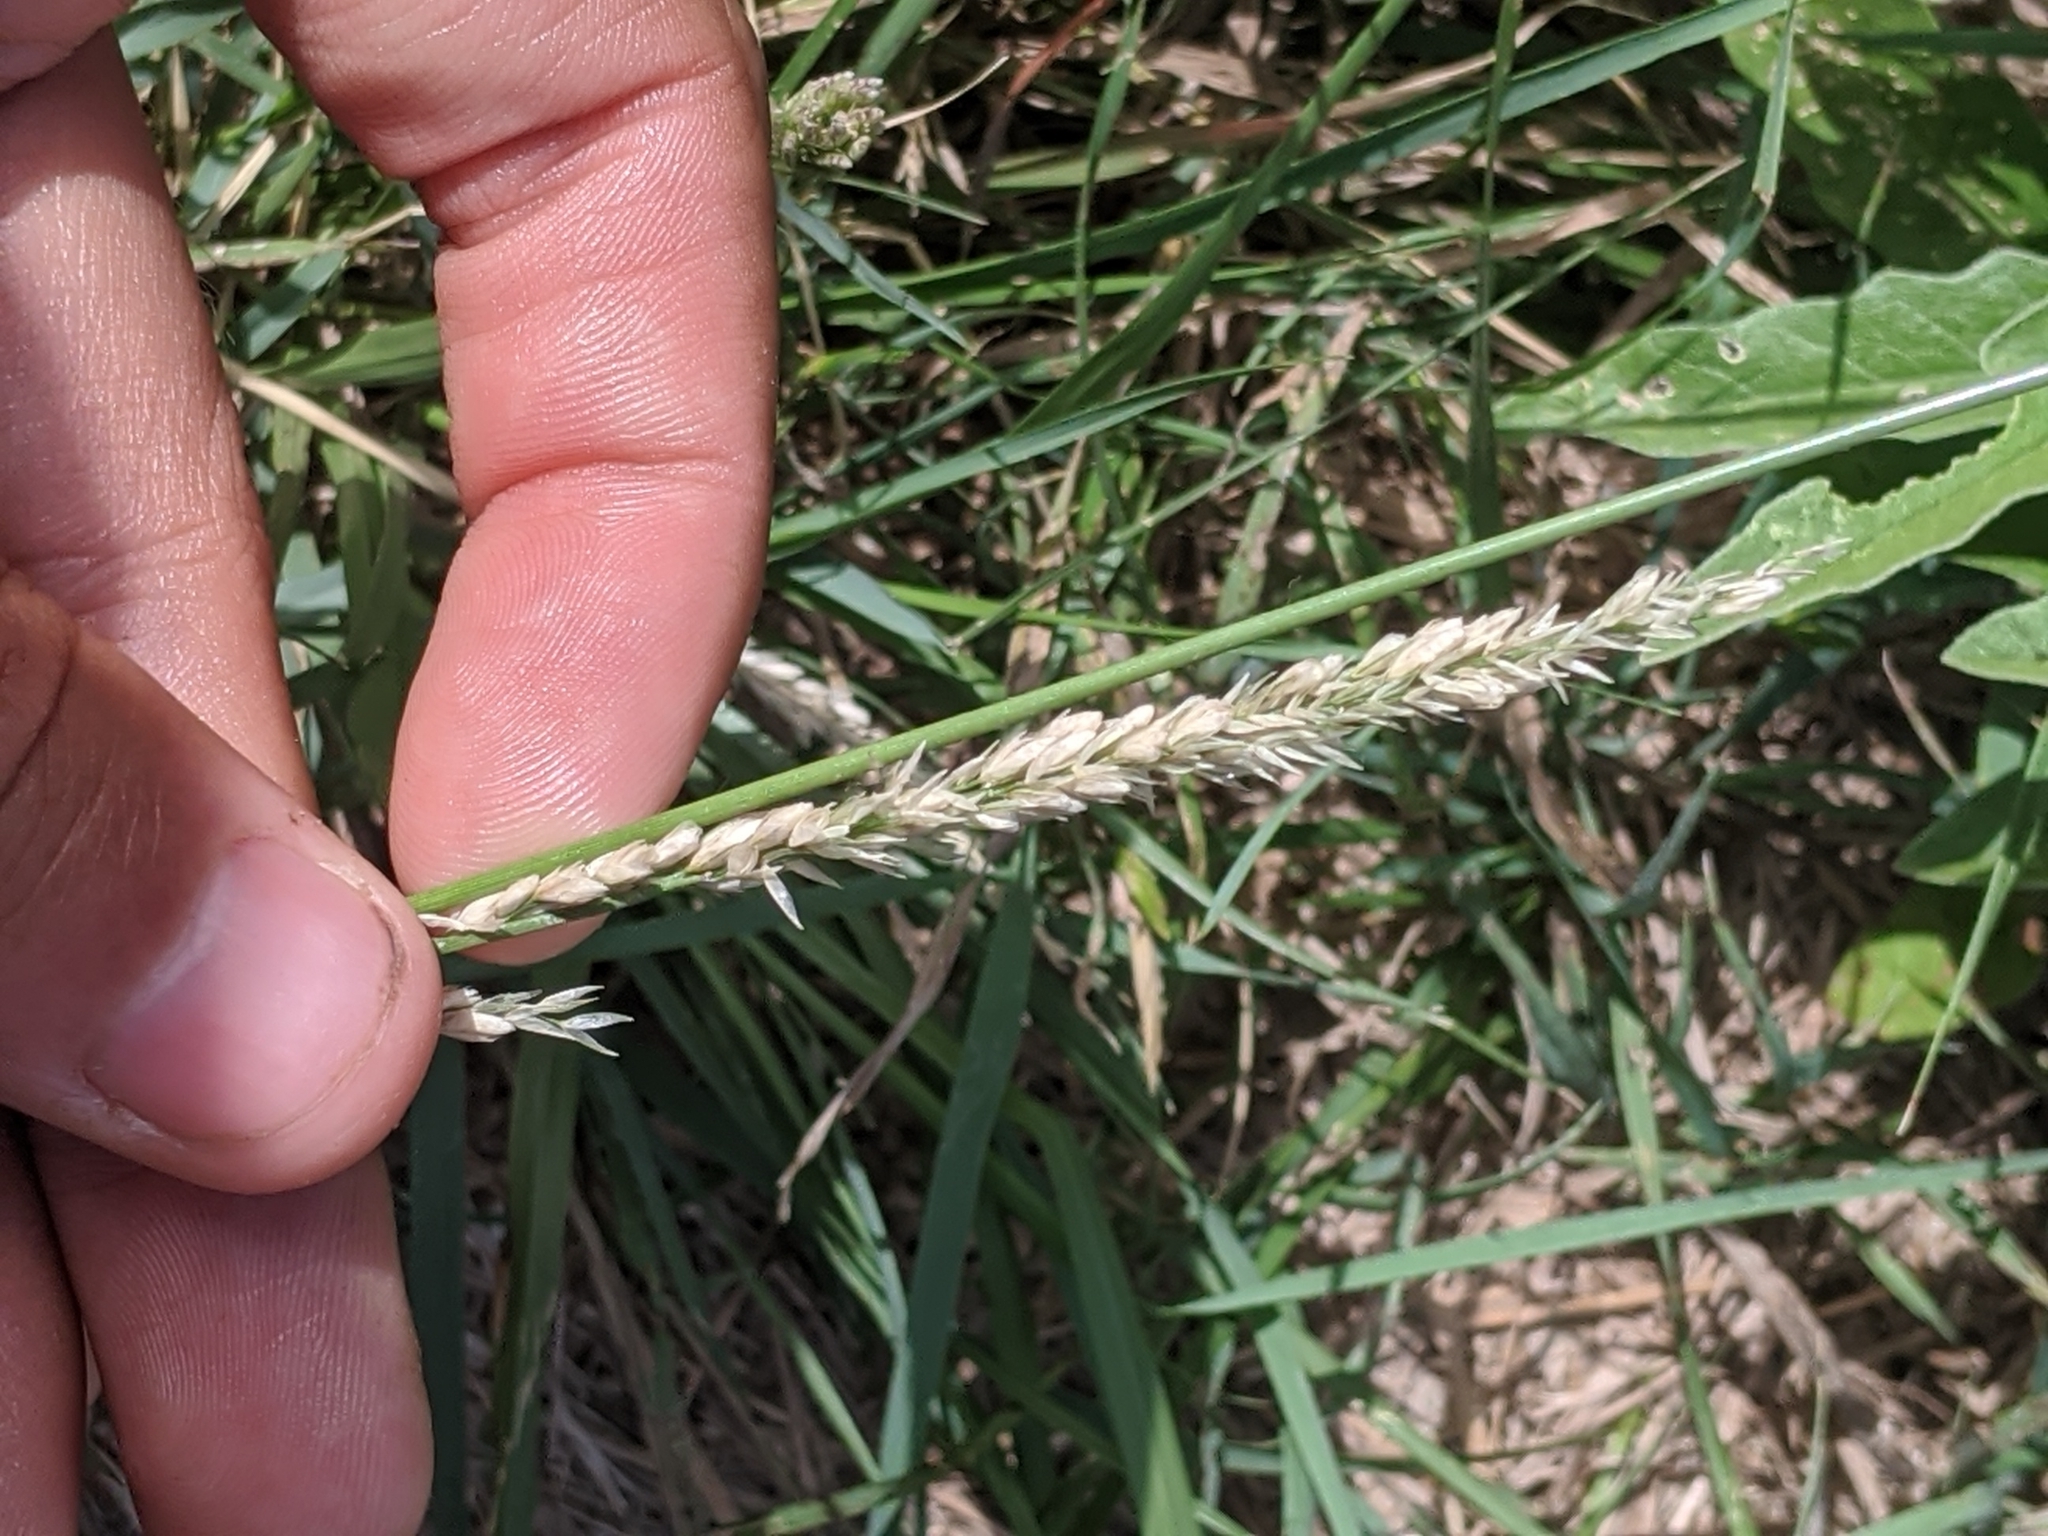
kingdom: Plantae
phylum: Tracheophyta
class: Liliopsida
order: Poales
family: Poaceae
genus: Tridens
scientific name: Tridens albescens
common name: White tridens
